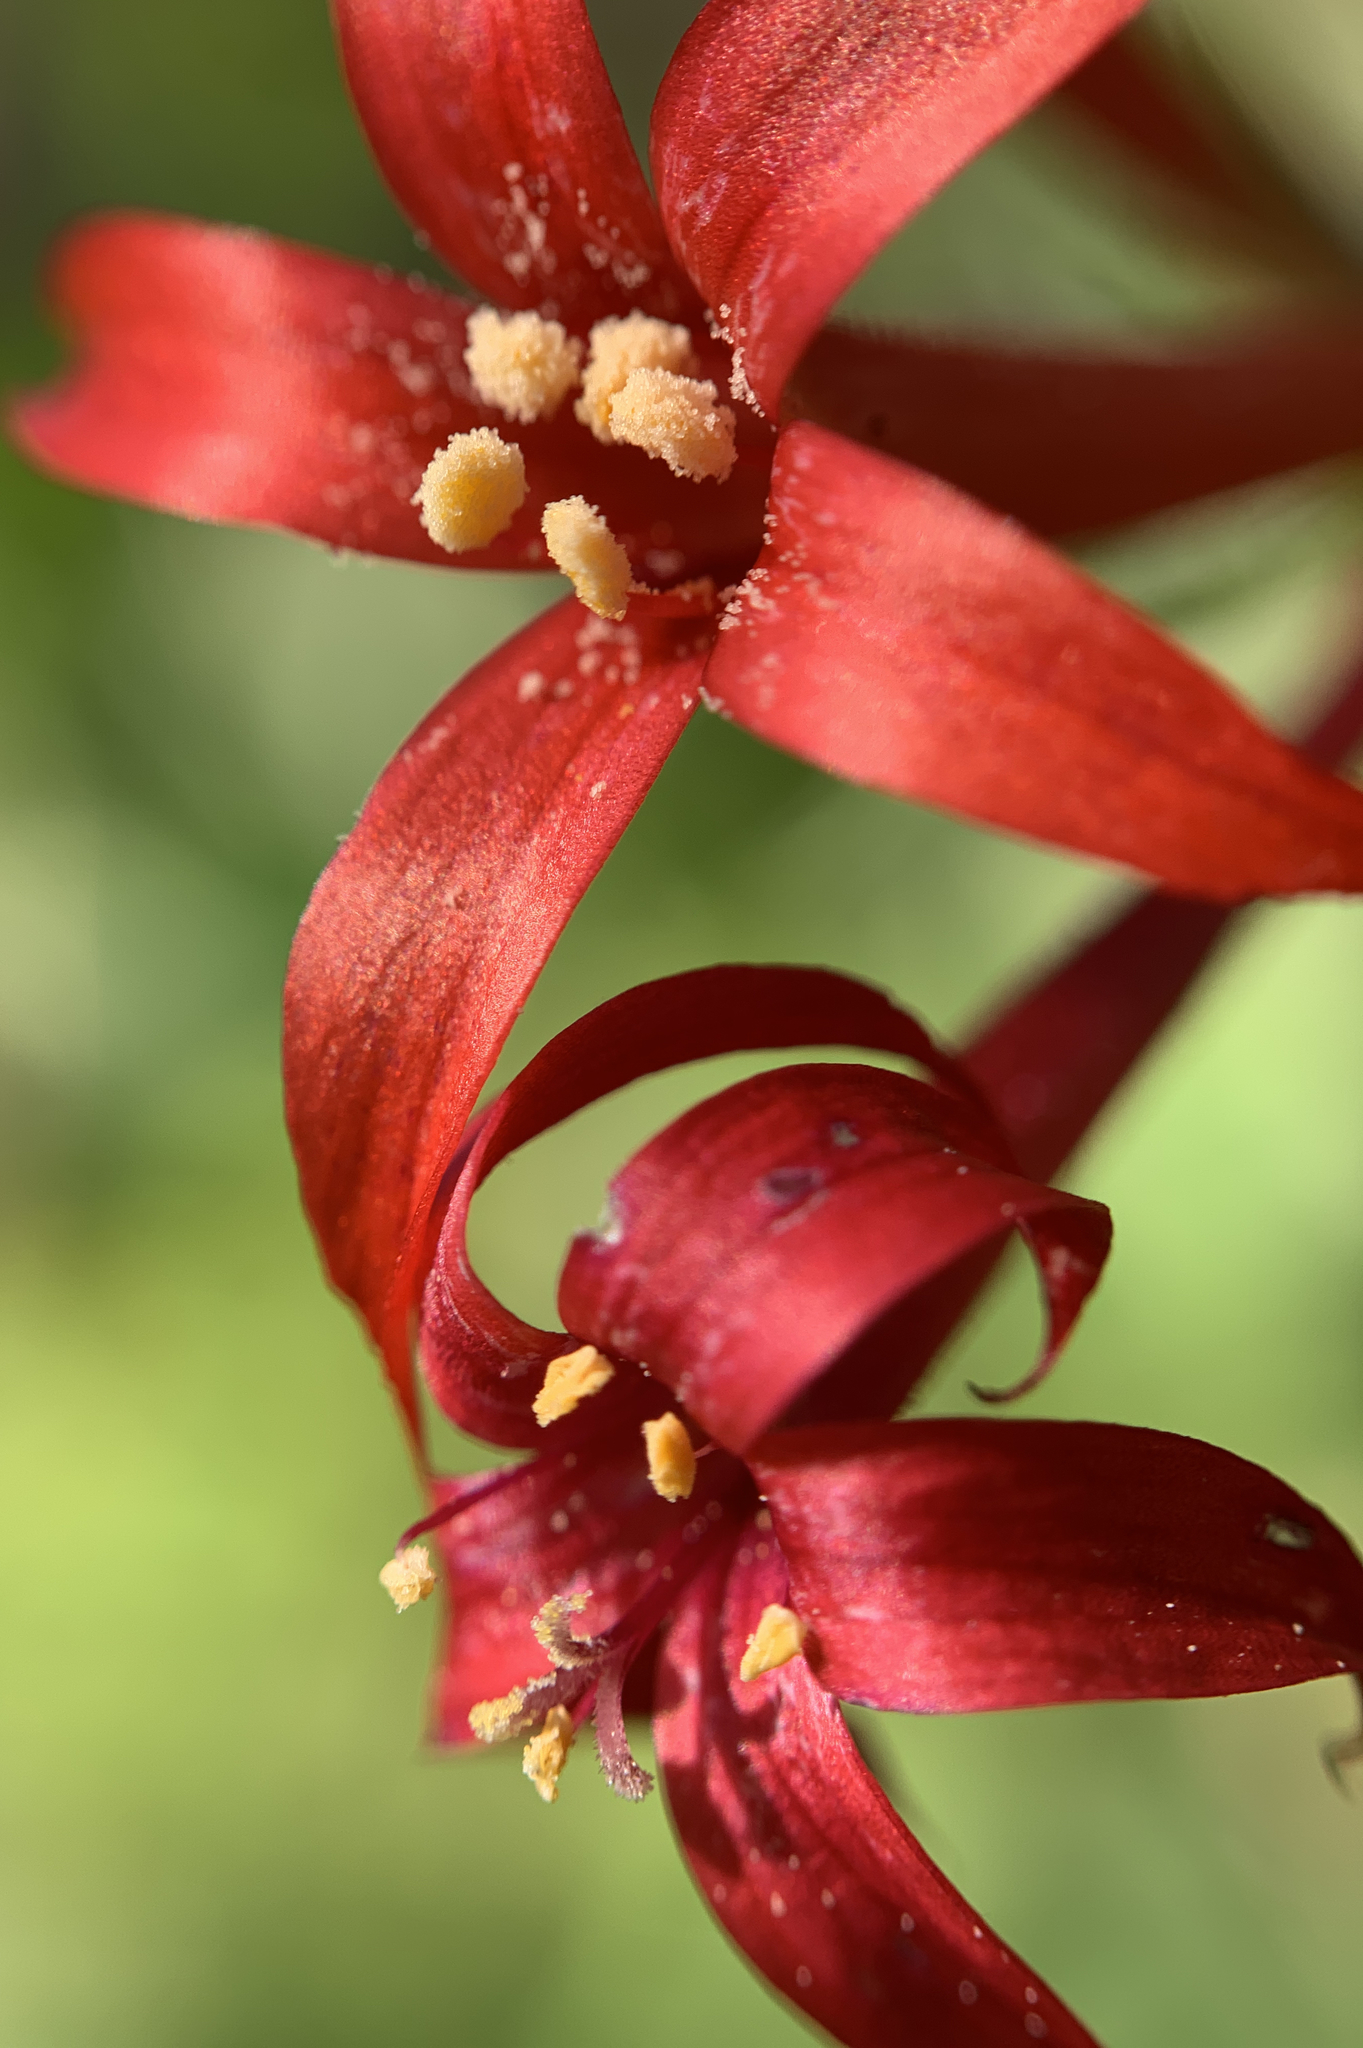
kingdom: Plantae
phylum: Tracheophyta
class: Magnoliopsida
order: Ericales
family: Polemoniaceae
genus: Ipomopsis
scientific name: Ipomopsis aggregata
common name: Scarlet gilia
